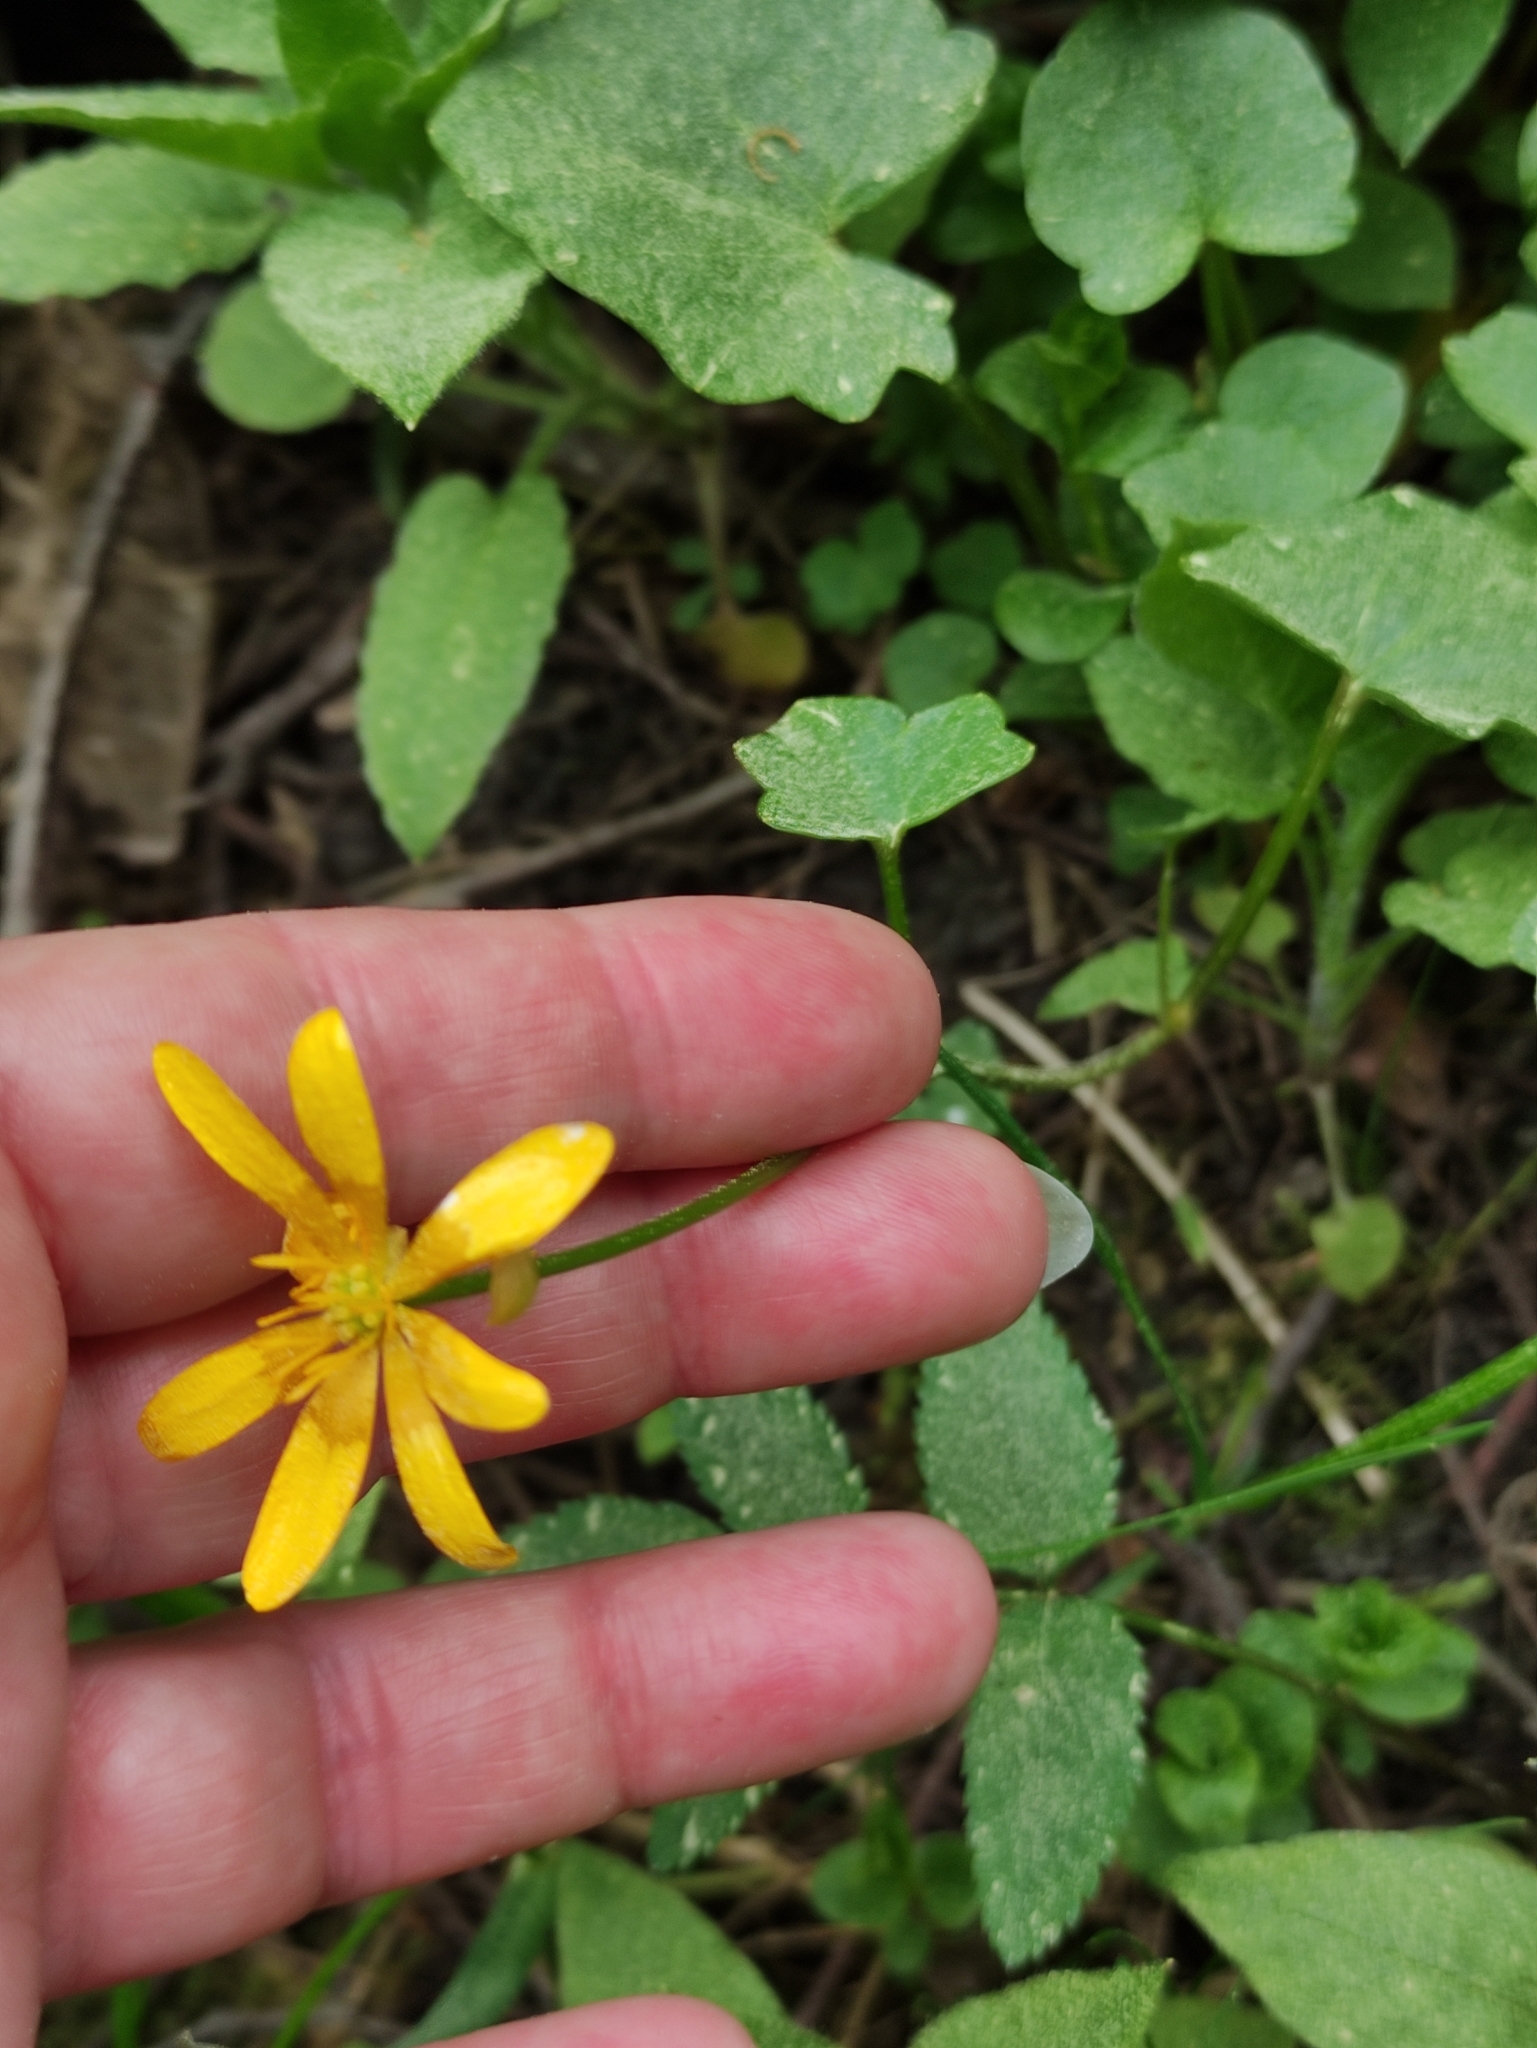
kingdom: Plantae
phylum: Tracheophyta
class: Magnoliopsida
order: Ranunculales
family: Ranunculaceae
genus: Ficaria
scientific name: Ficaria verna
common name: Lesser celandine
